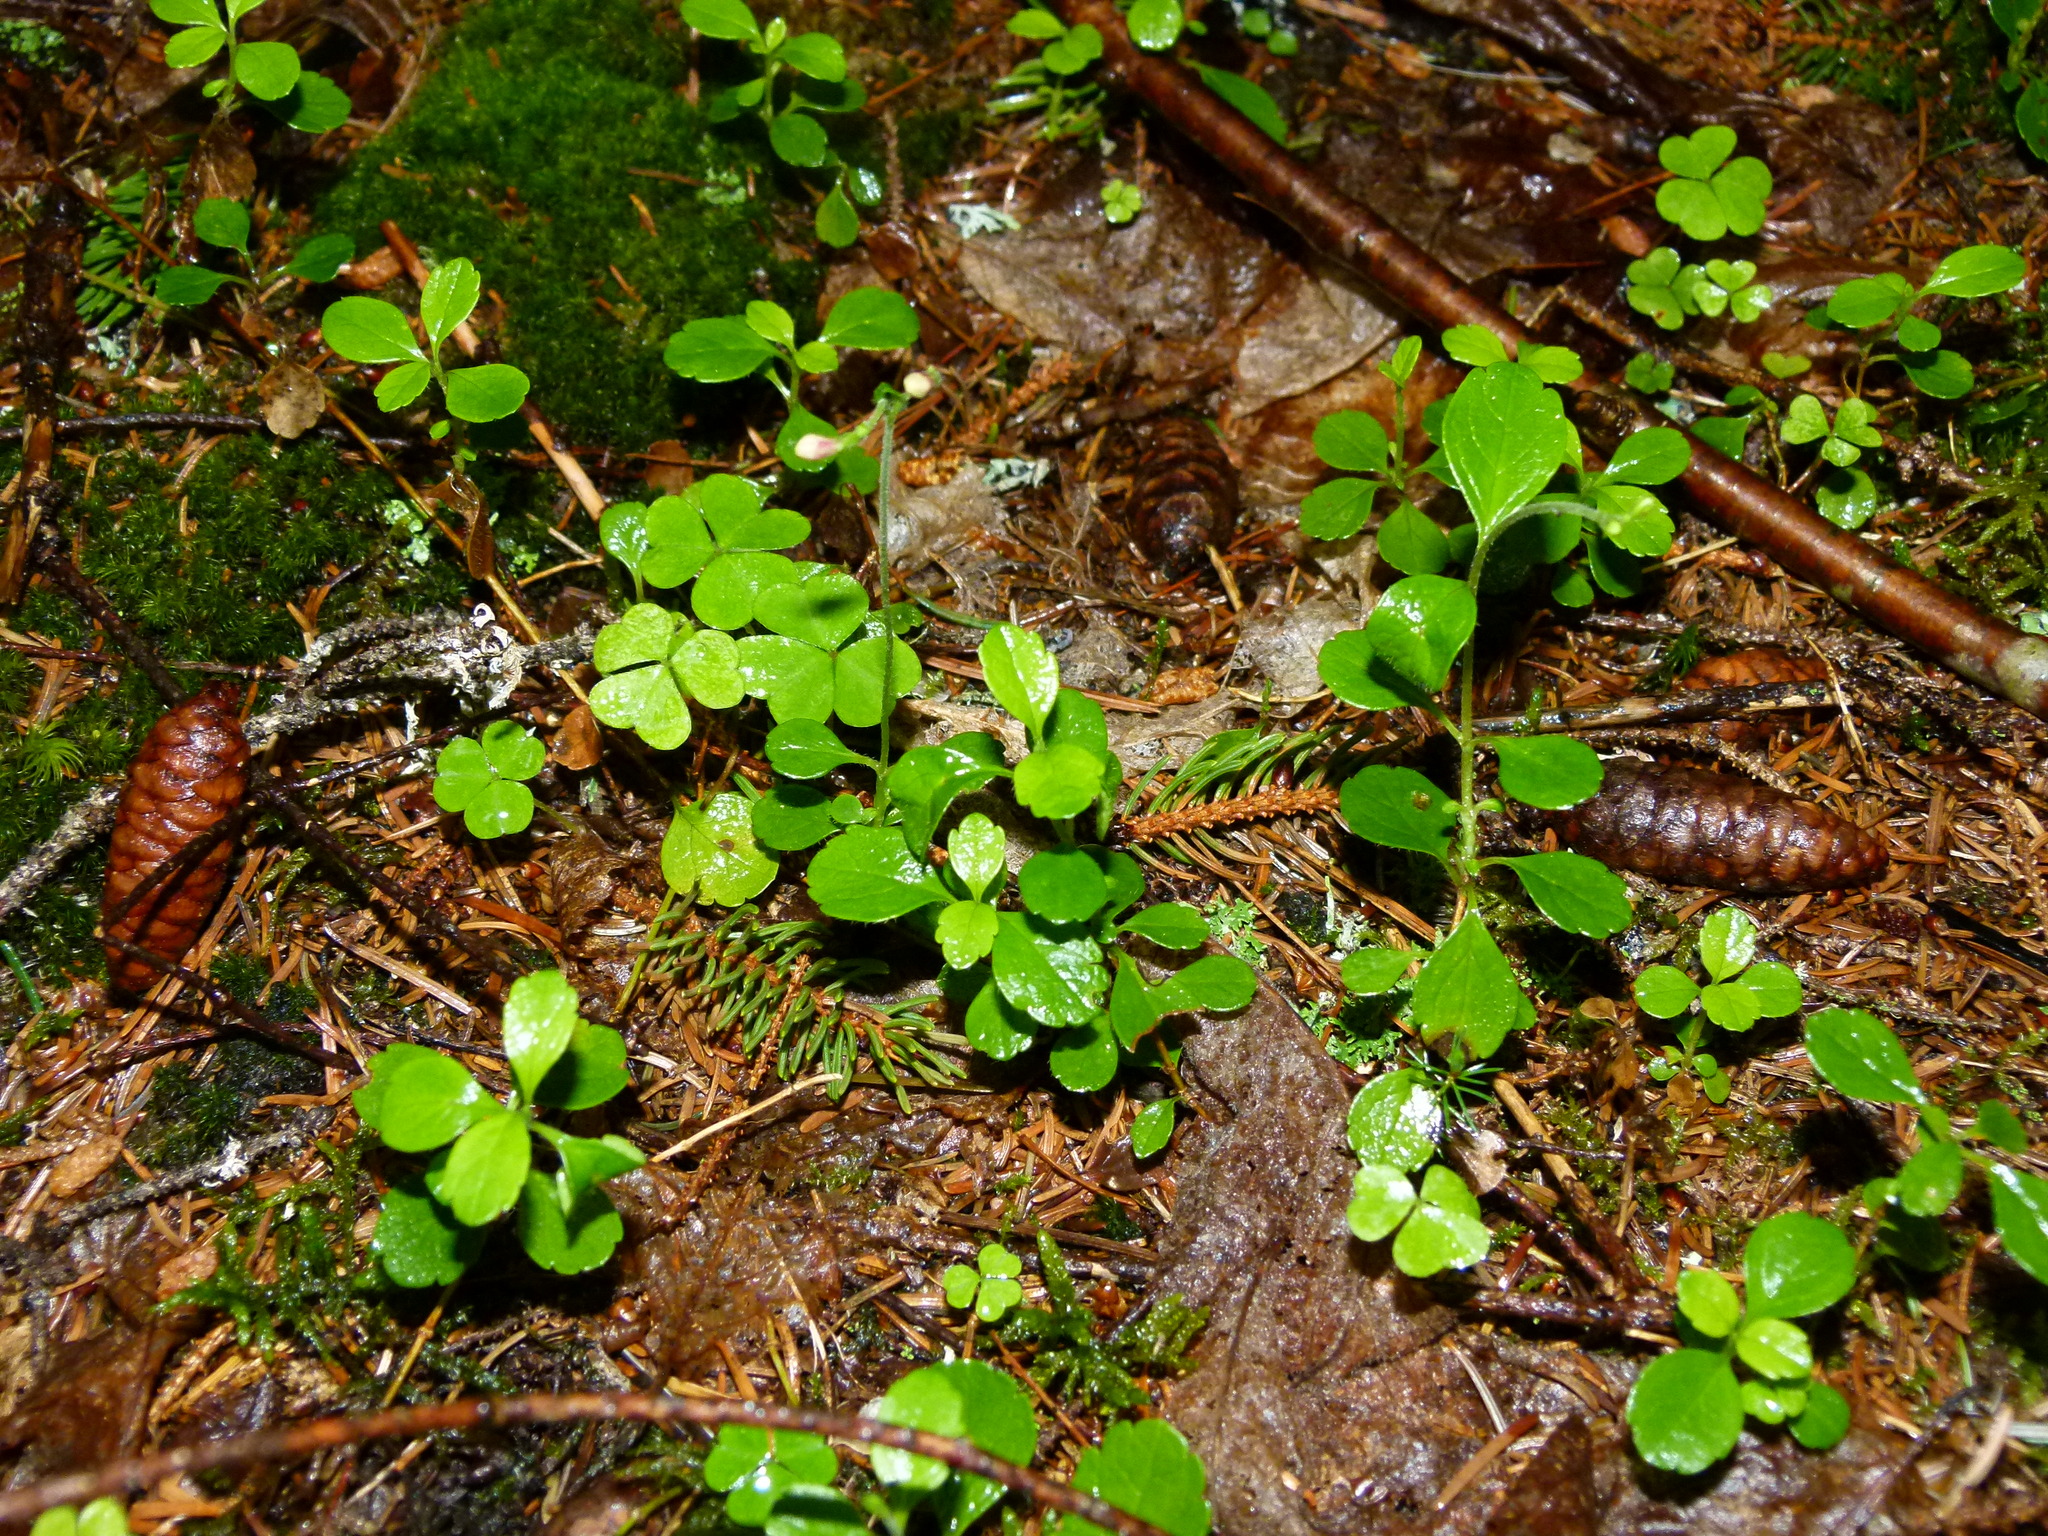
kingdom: Plantae
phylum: Tracheophyta
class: Magnoliopsida
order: Dipsacales
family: Caprifoliaceae
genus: Linnaea
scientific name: Linnaea borealis
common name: Twinflower
